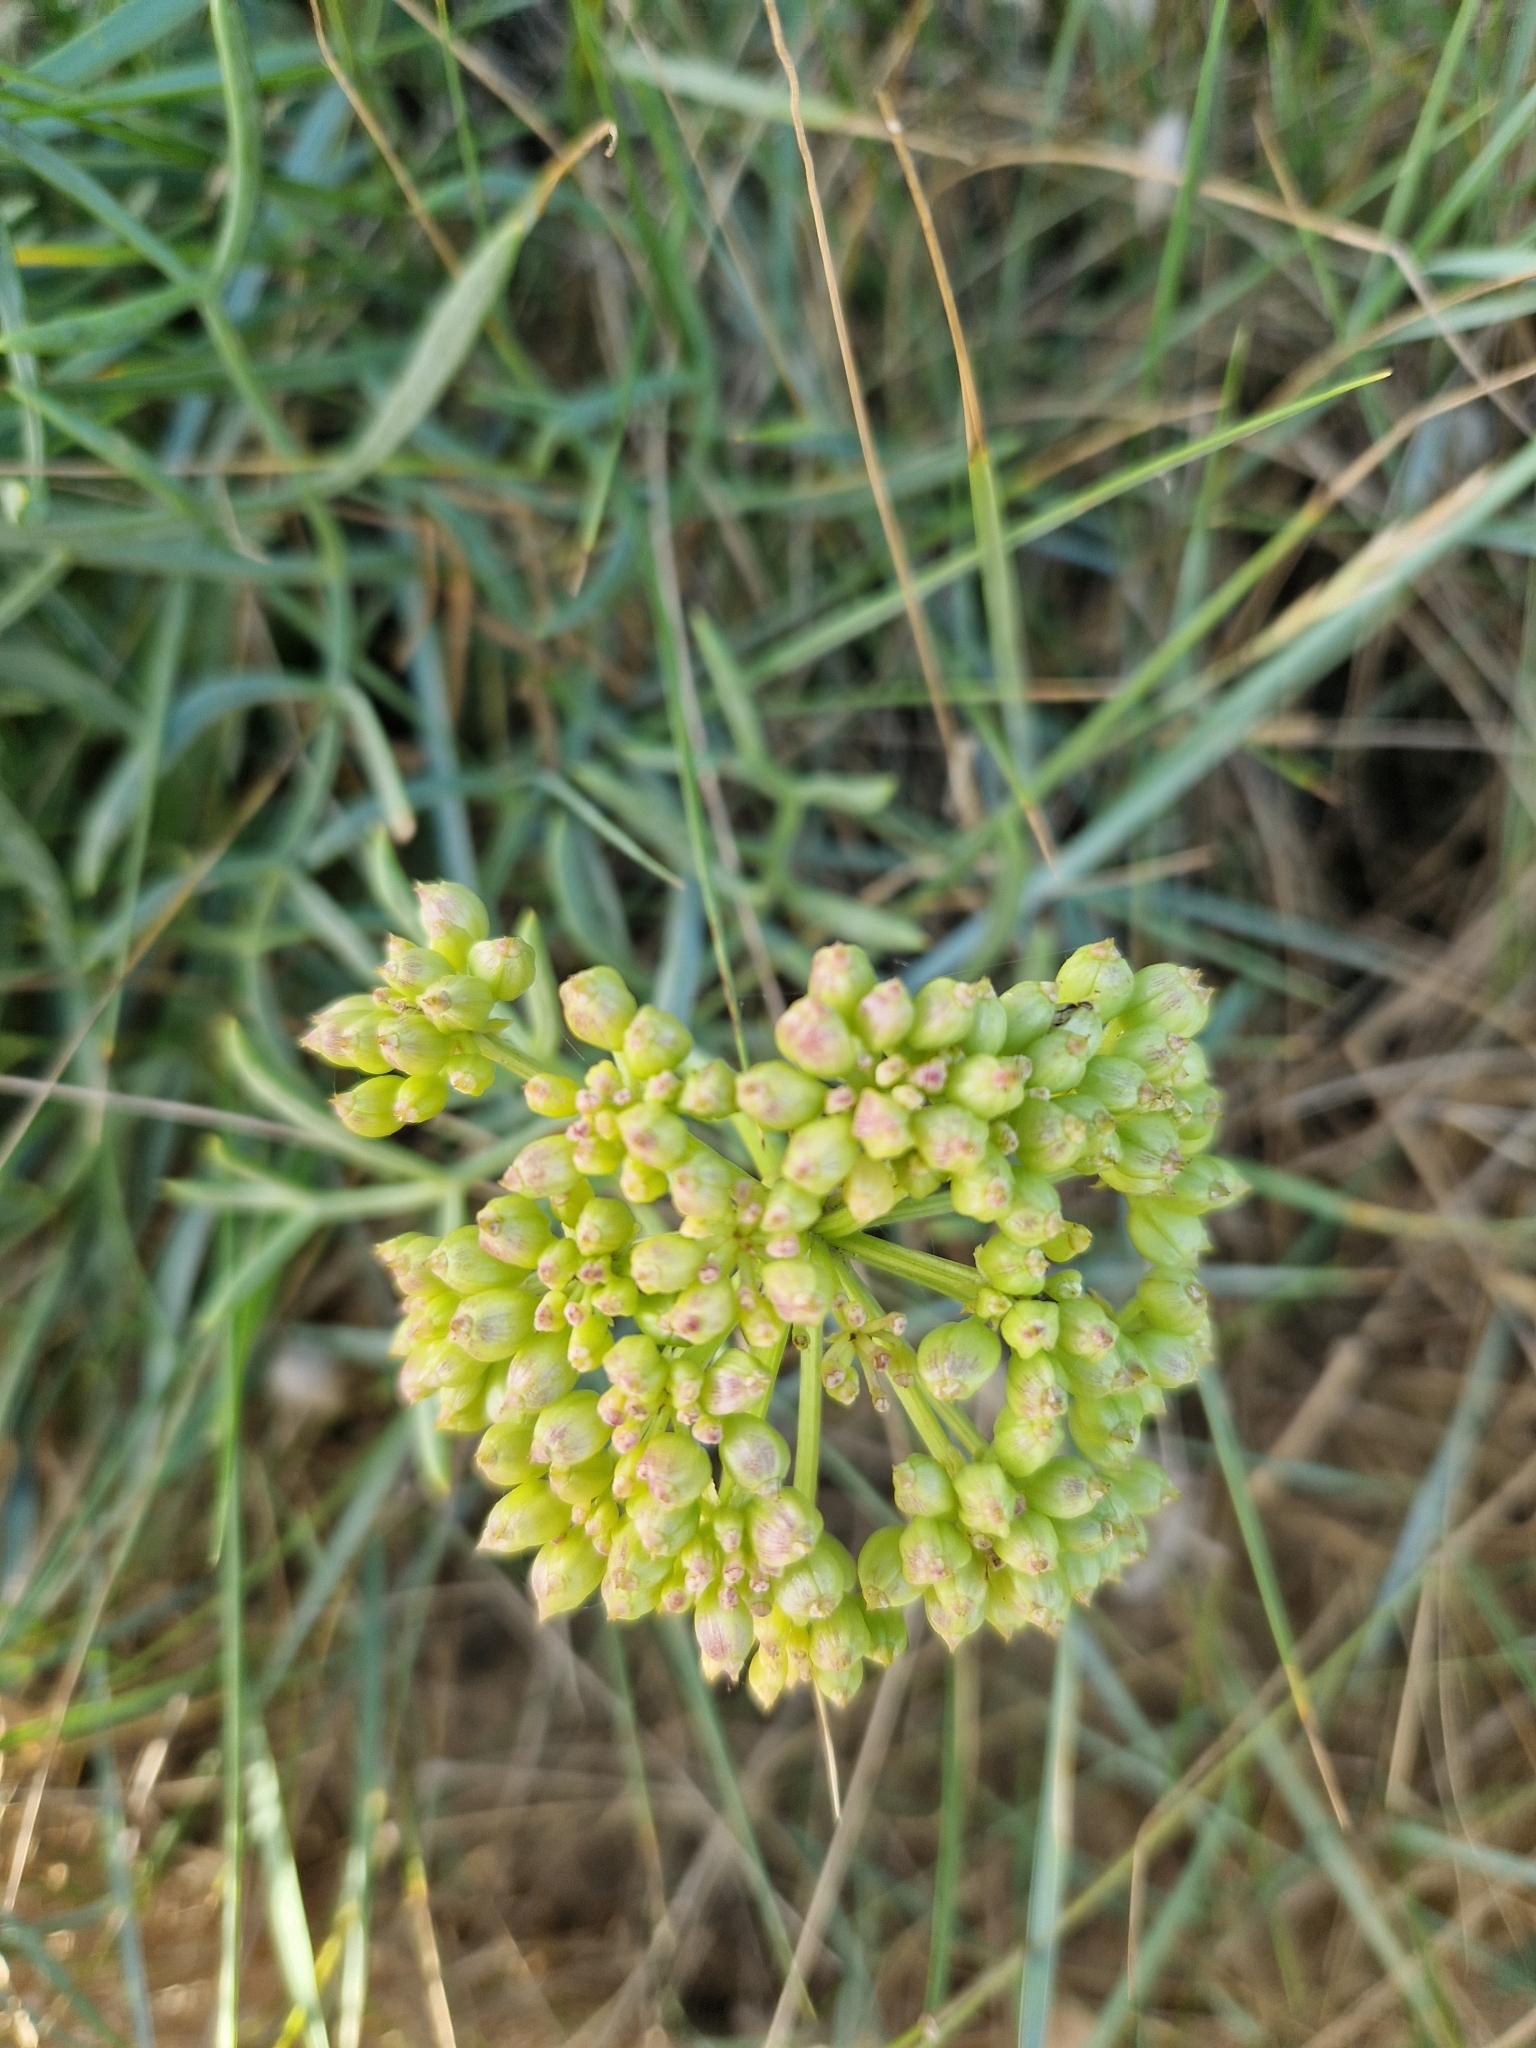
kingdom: Plantae
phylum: Tracheophyta
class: Magnoliopsida
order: Apiales
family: Apiaceae
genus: Crithmum
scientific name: Crithmum maritimum
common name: Rock samphire
